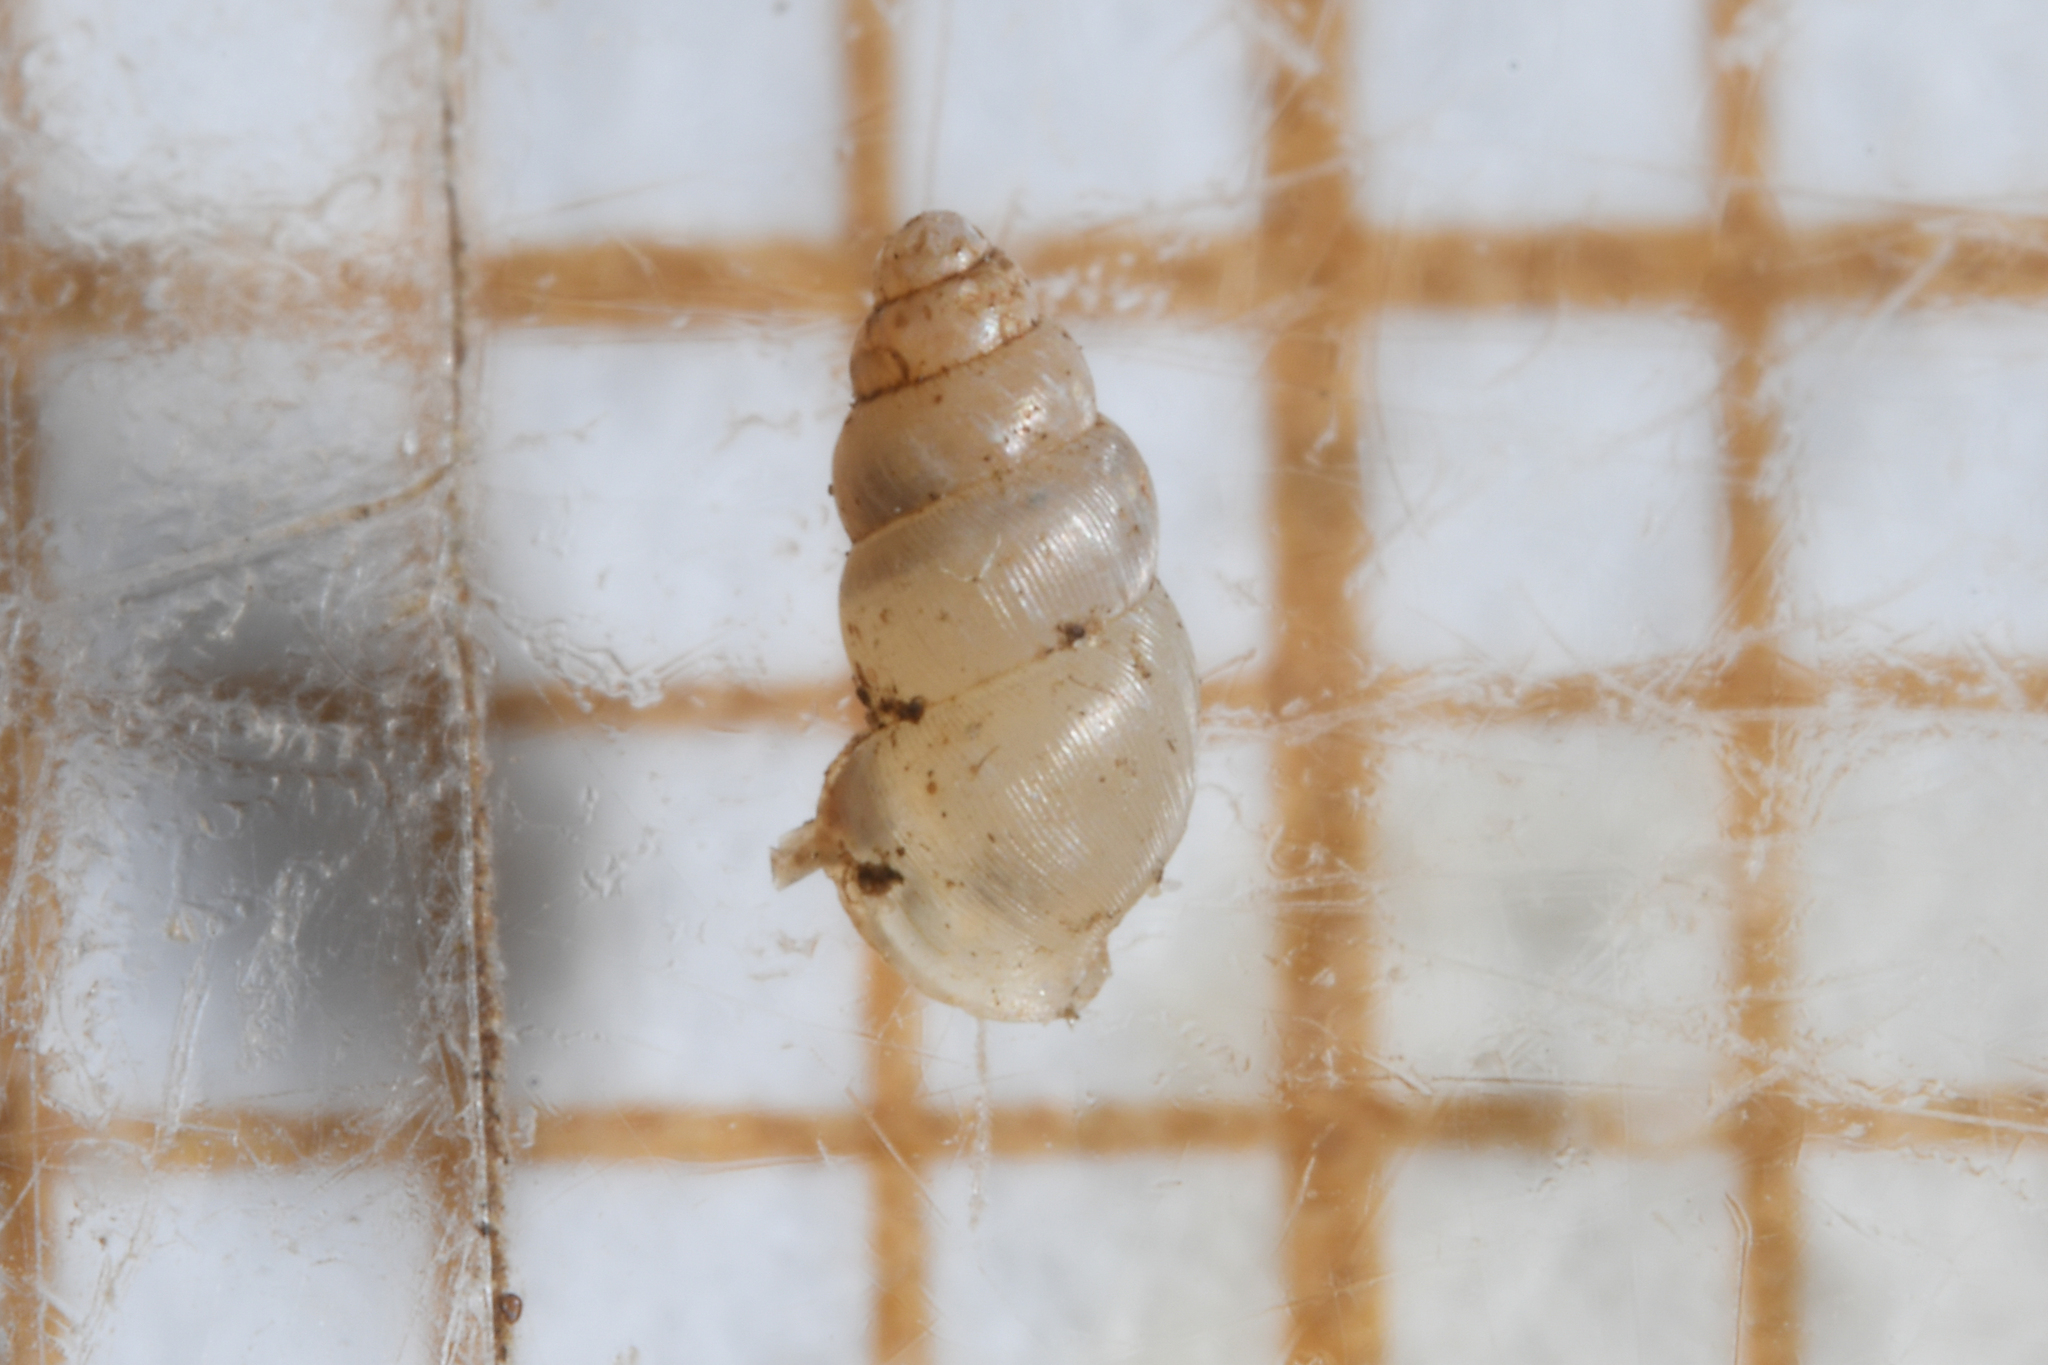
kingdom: Animalia
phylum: Mollusca
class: Gastropoda
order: Ellobiida
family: Ellobiidae
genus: Carychium
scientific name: Carychium tridentatum
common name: Long-toothed herald snail
